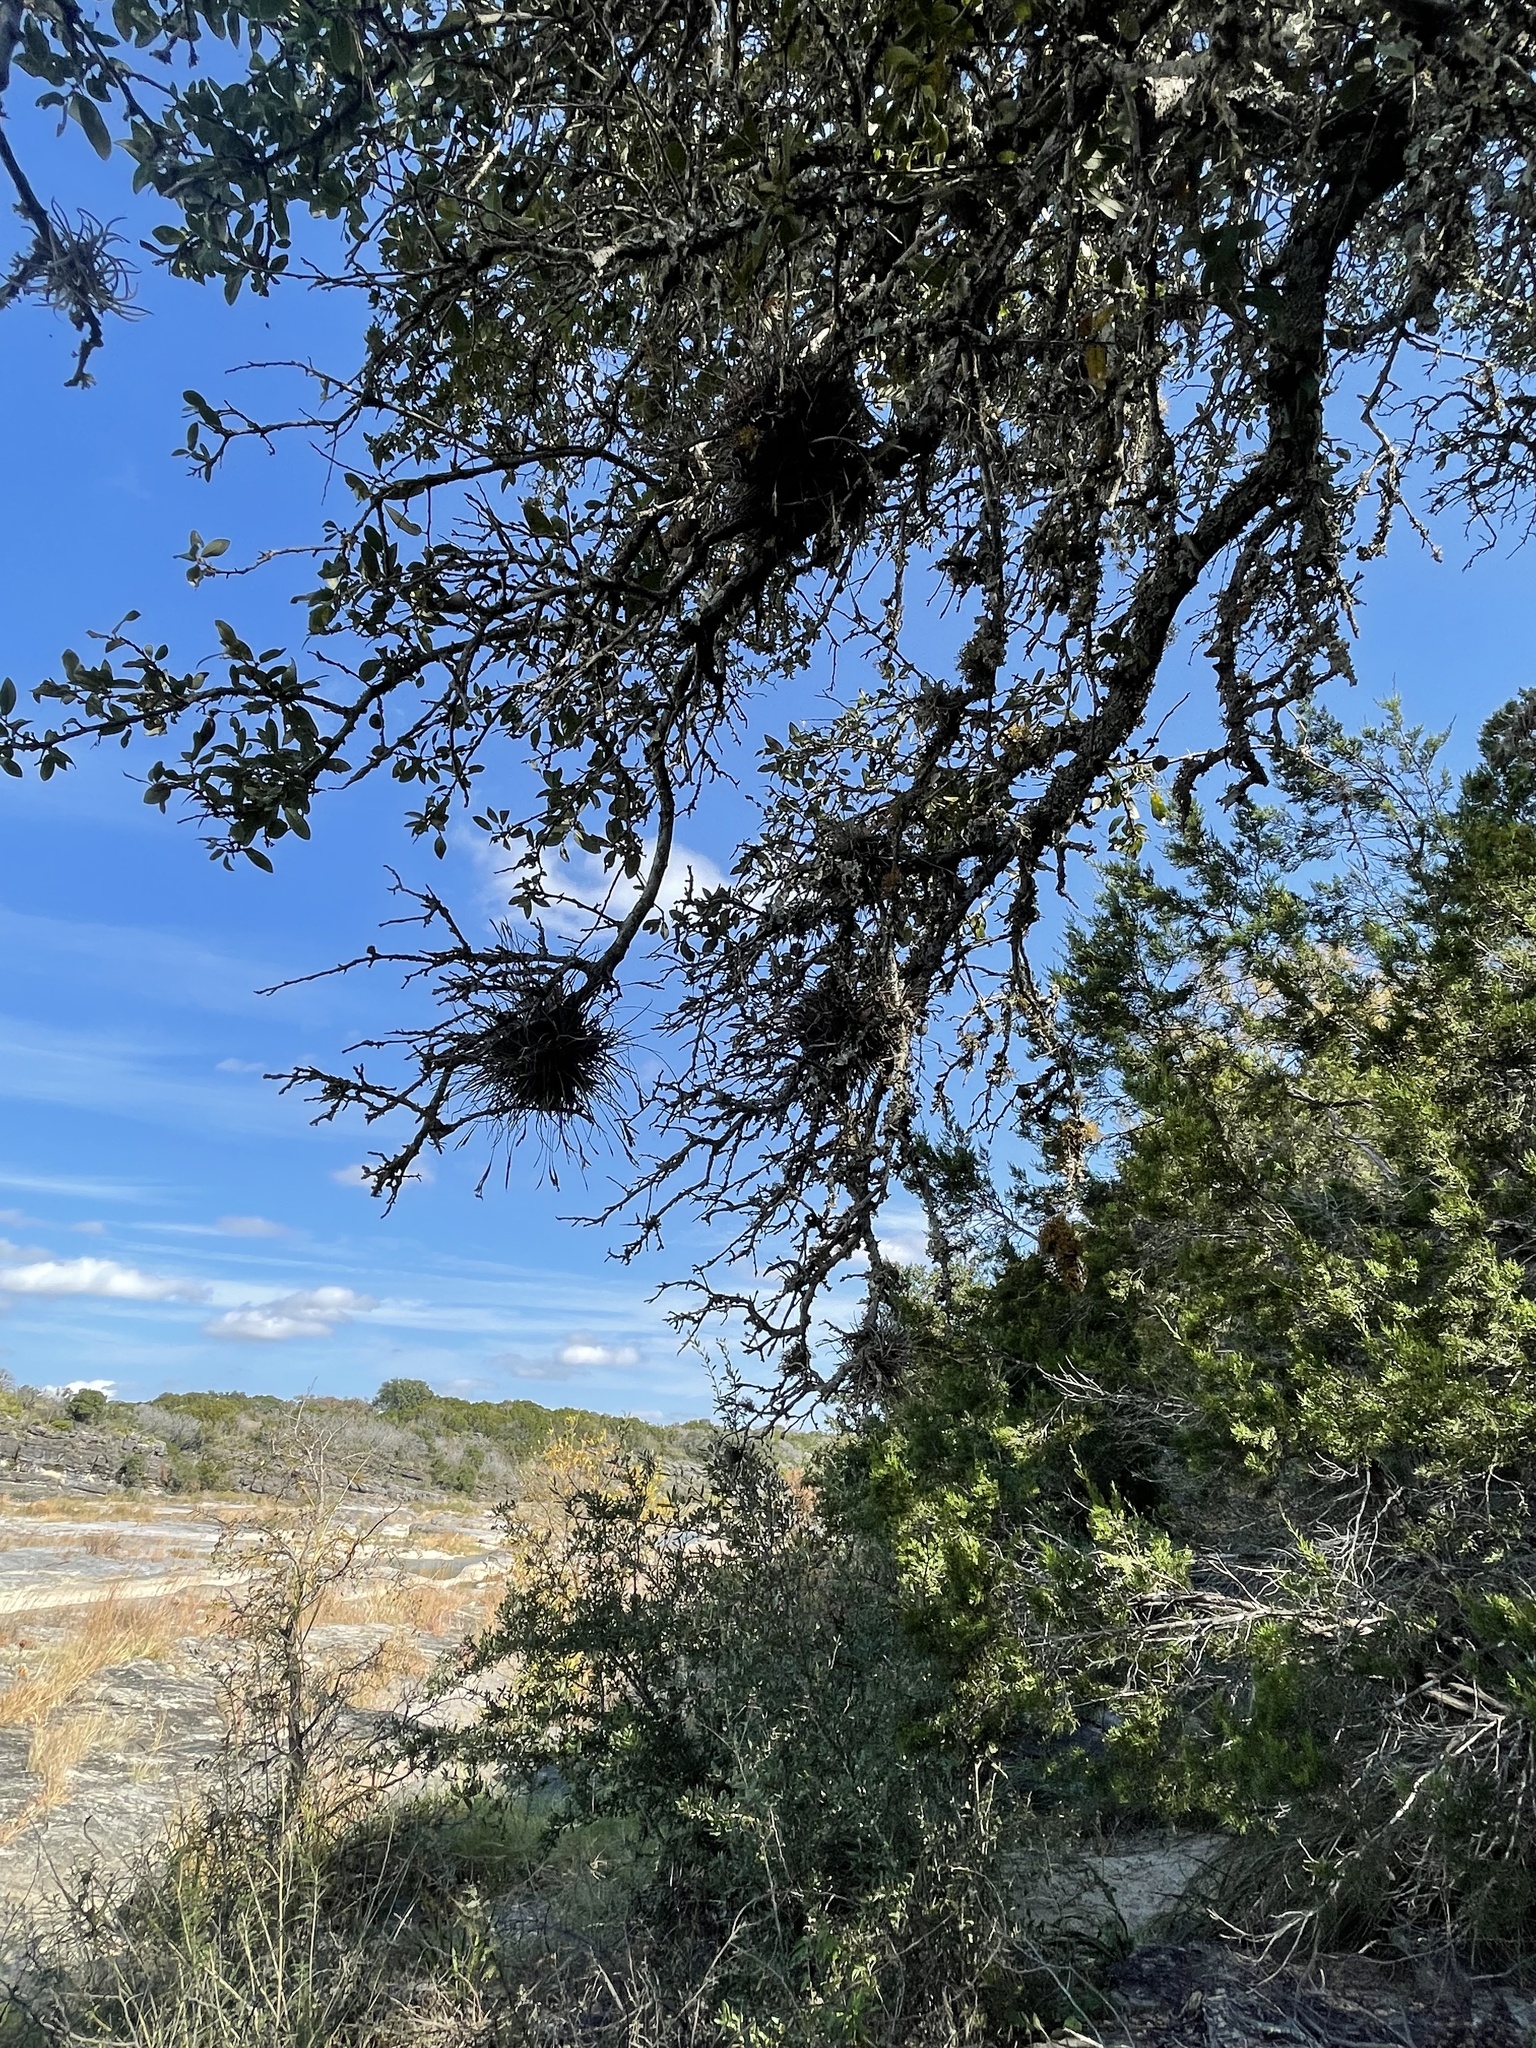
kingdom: Plantae
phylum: Tracheophyta
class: Liliopsida
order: Poales
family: Bromeliaceae
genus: Tillandsia
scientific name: Tillandsia recurvata
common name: Small ballmoss
